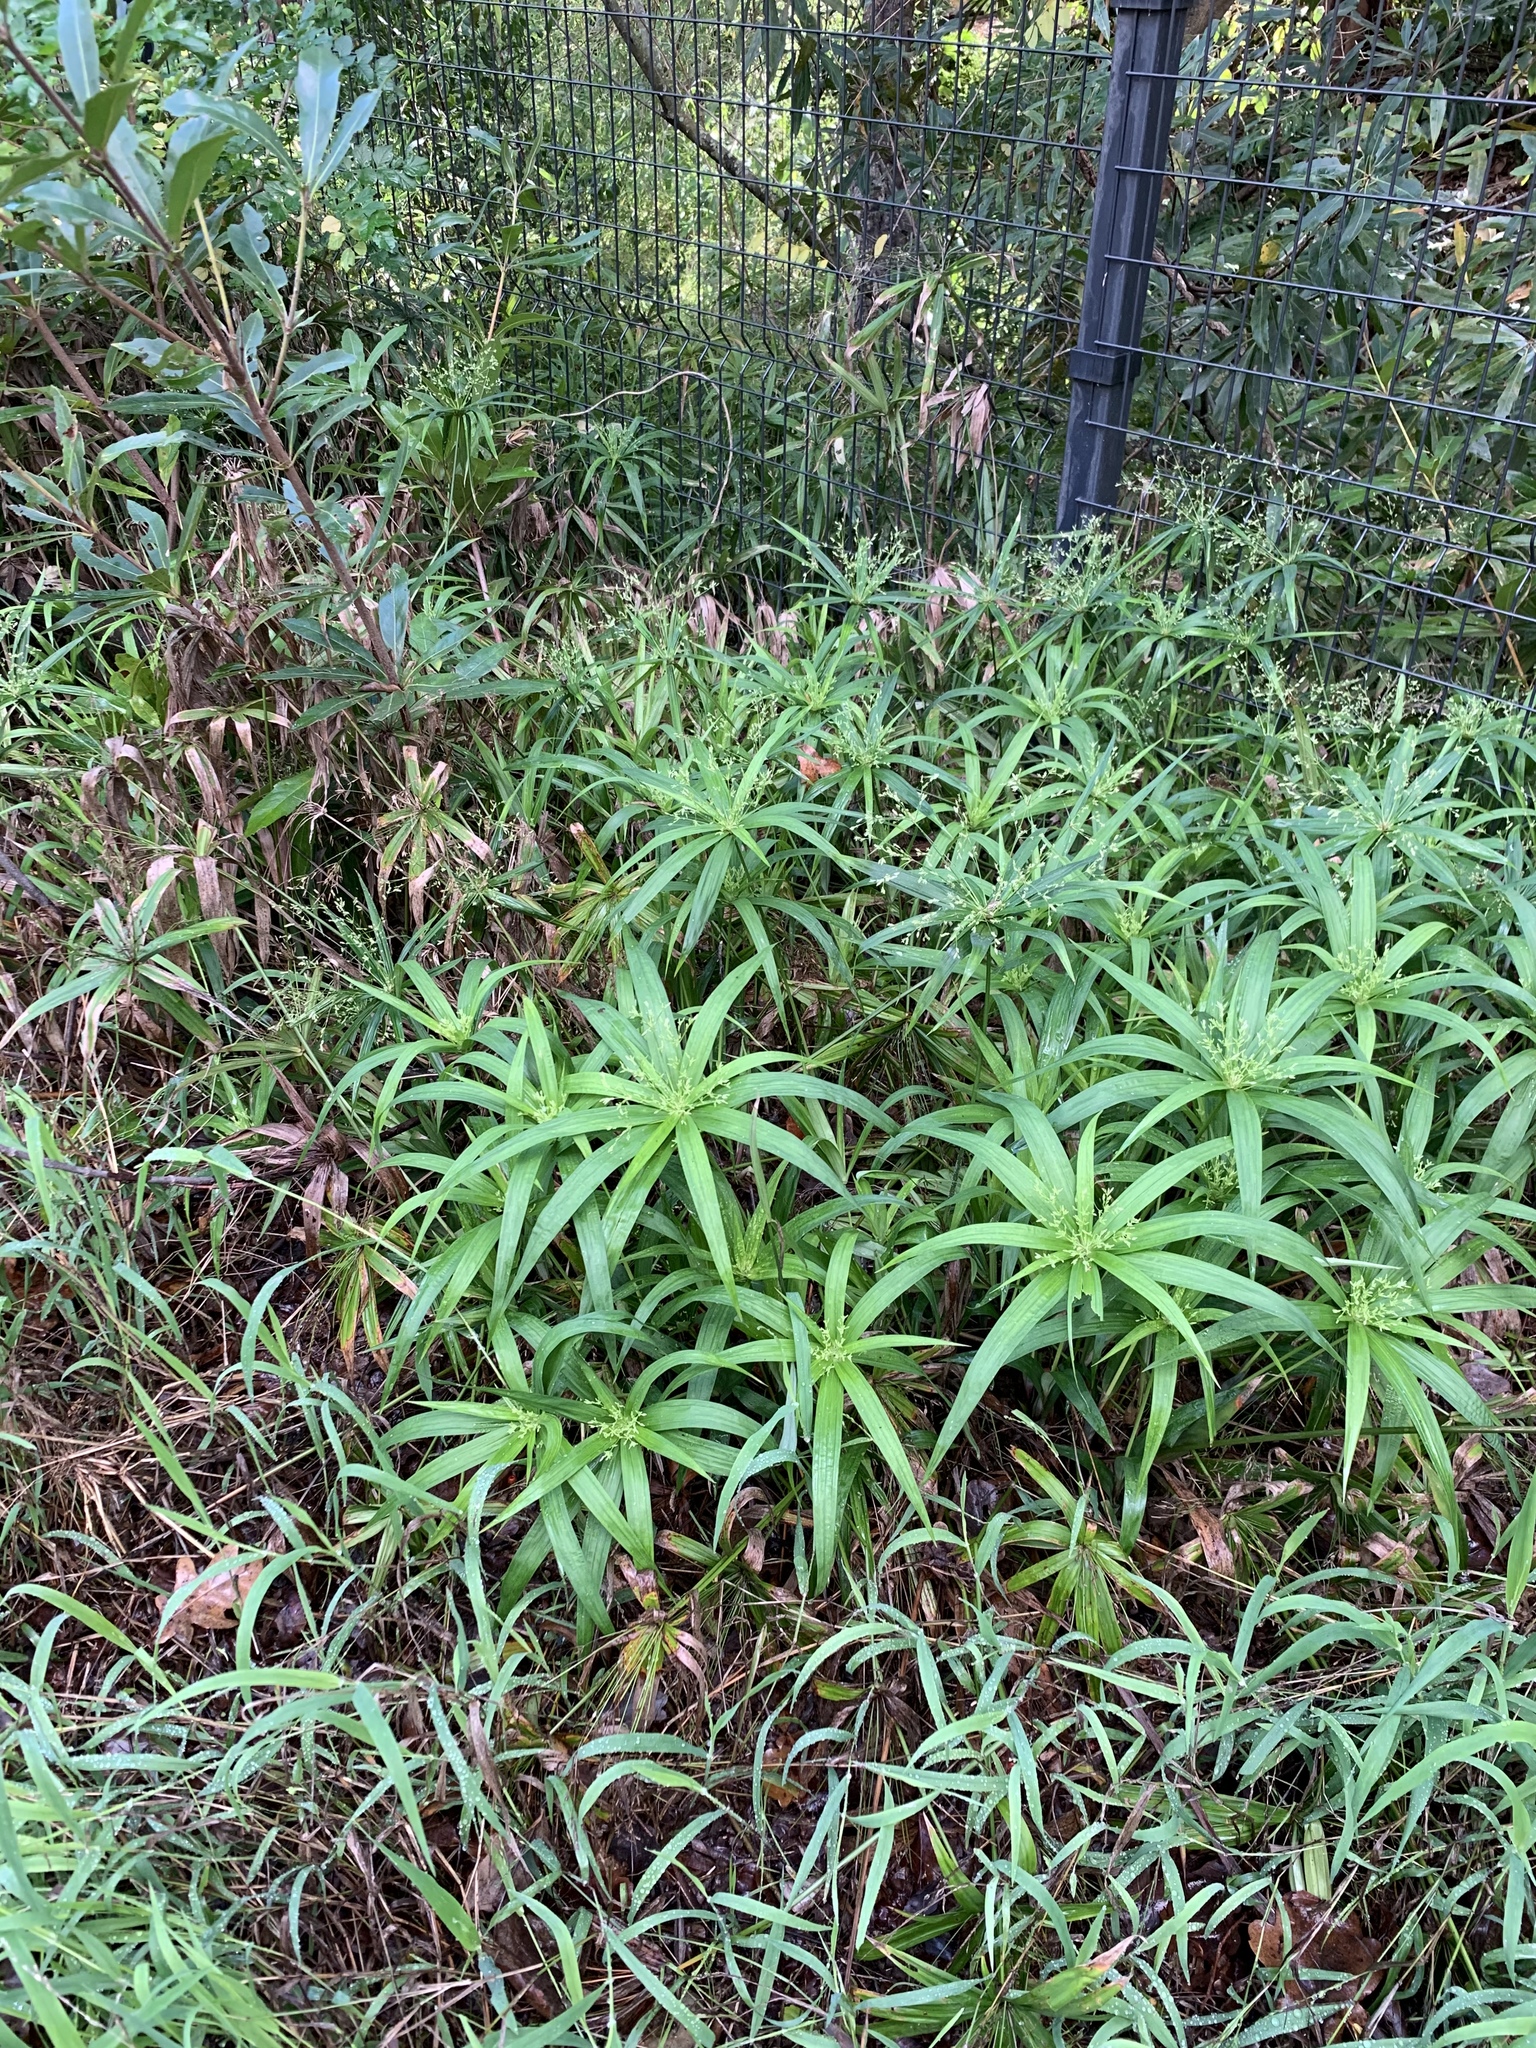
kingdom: Plantae
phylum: Tracheophyta
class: Liliopsida
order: Poales
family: Cyperaceae
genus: Cyperus
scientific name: Cyperus albostriatus
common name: Dwarf umbrella-grass
